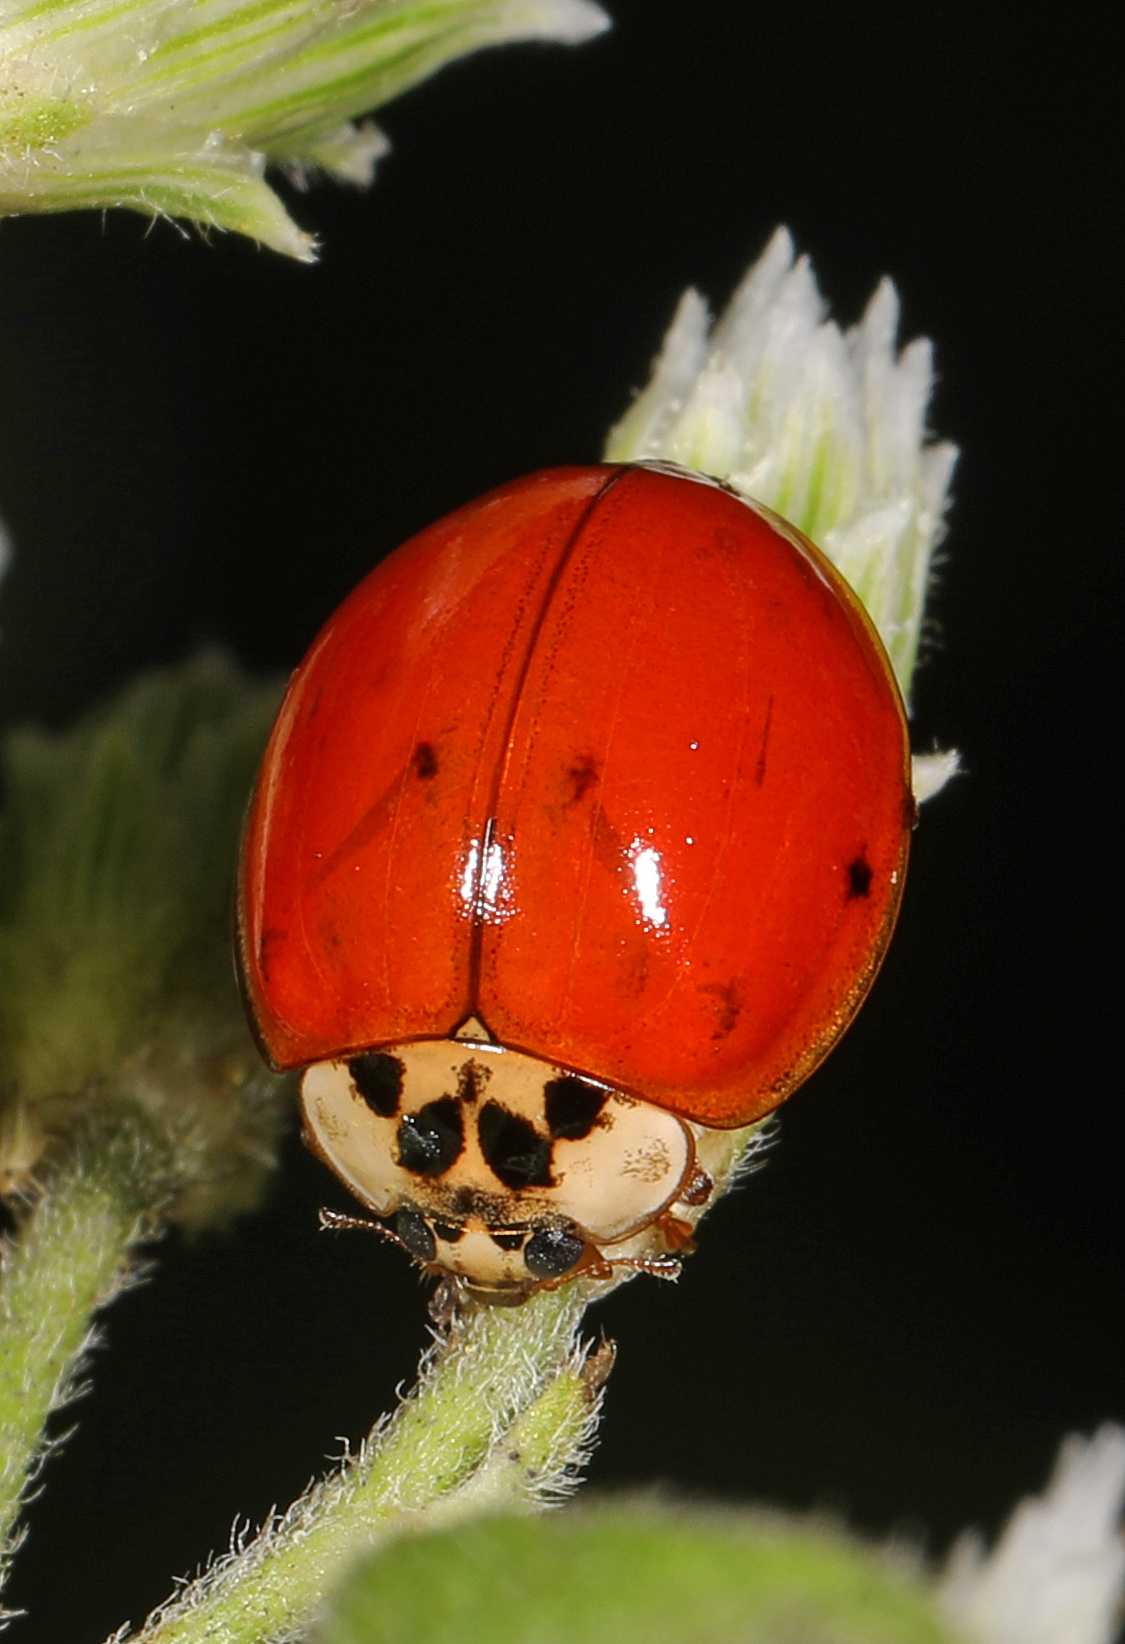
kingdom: Animalia
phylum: Arthropoda
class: Insecta
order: Coleoptera
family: Coccinellidae
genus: Harmonia
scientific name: Harmonia axyridis
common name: Harlequin ladybird
